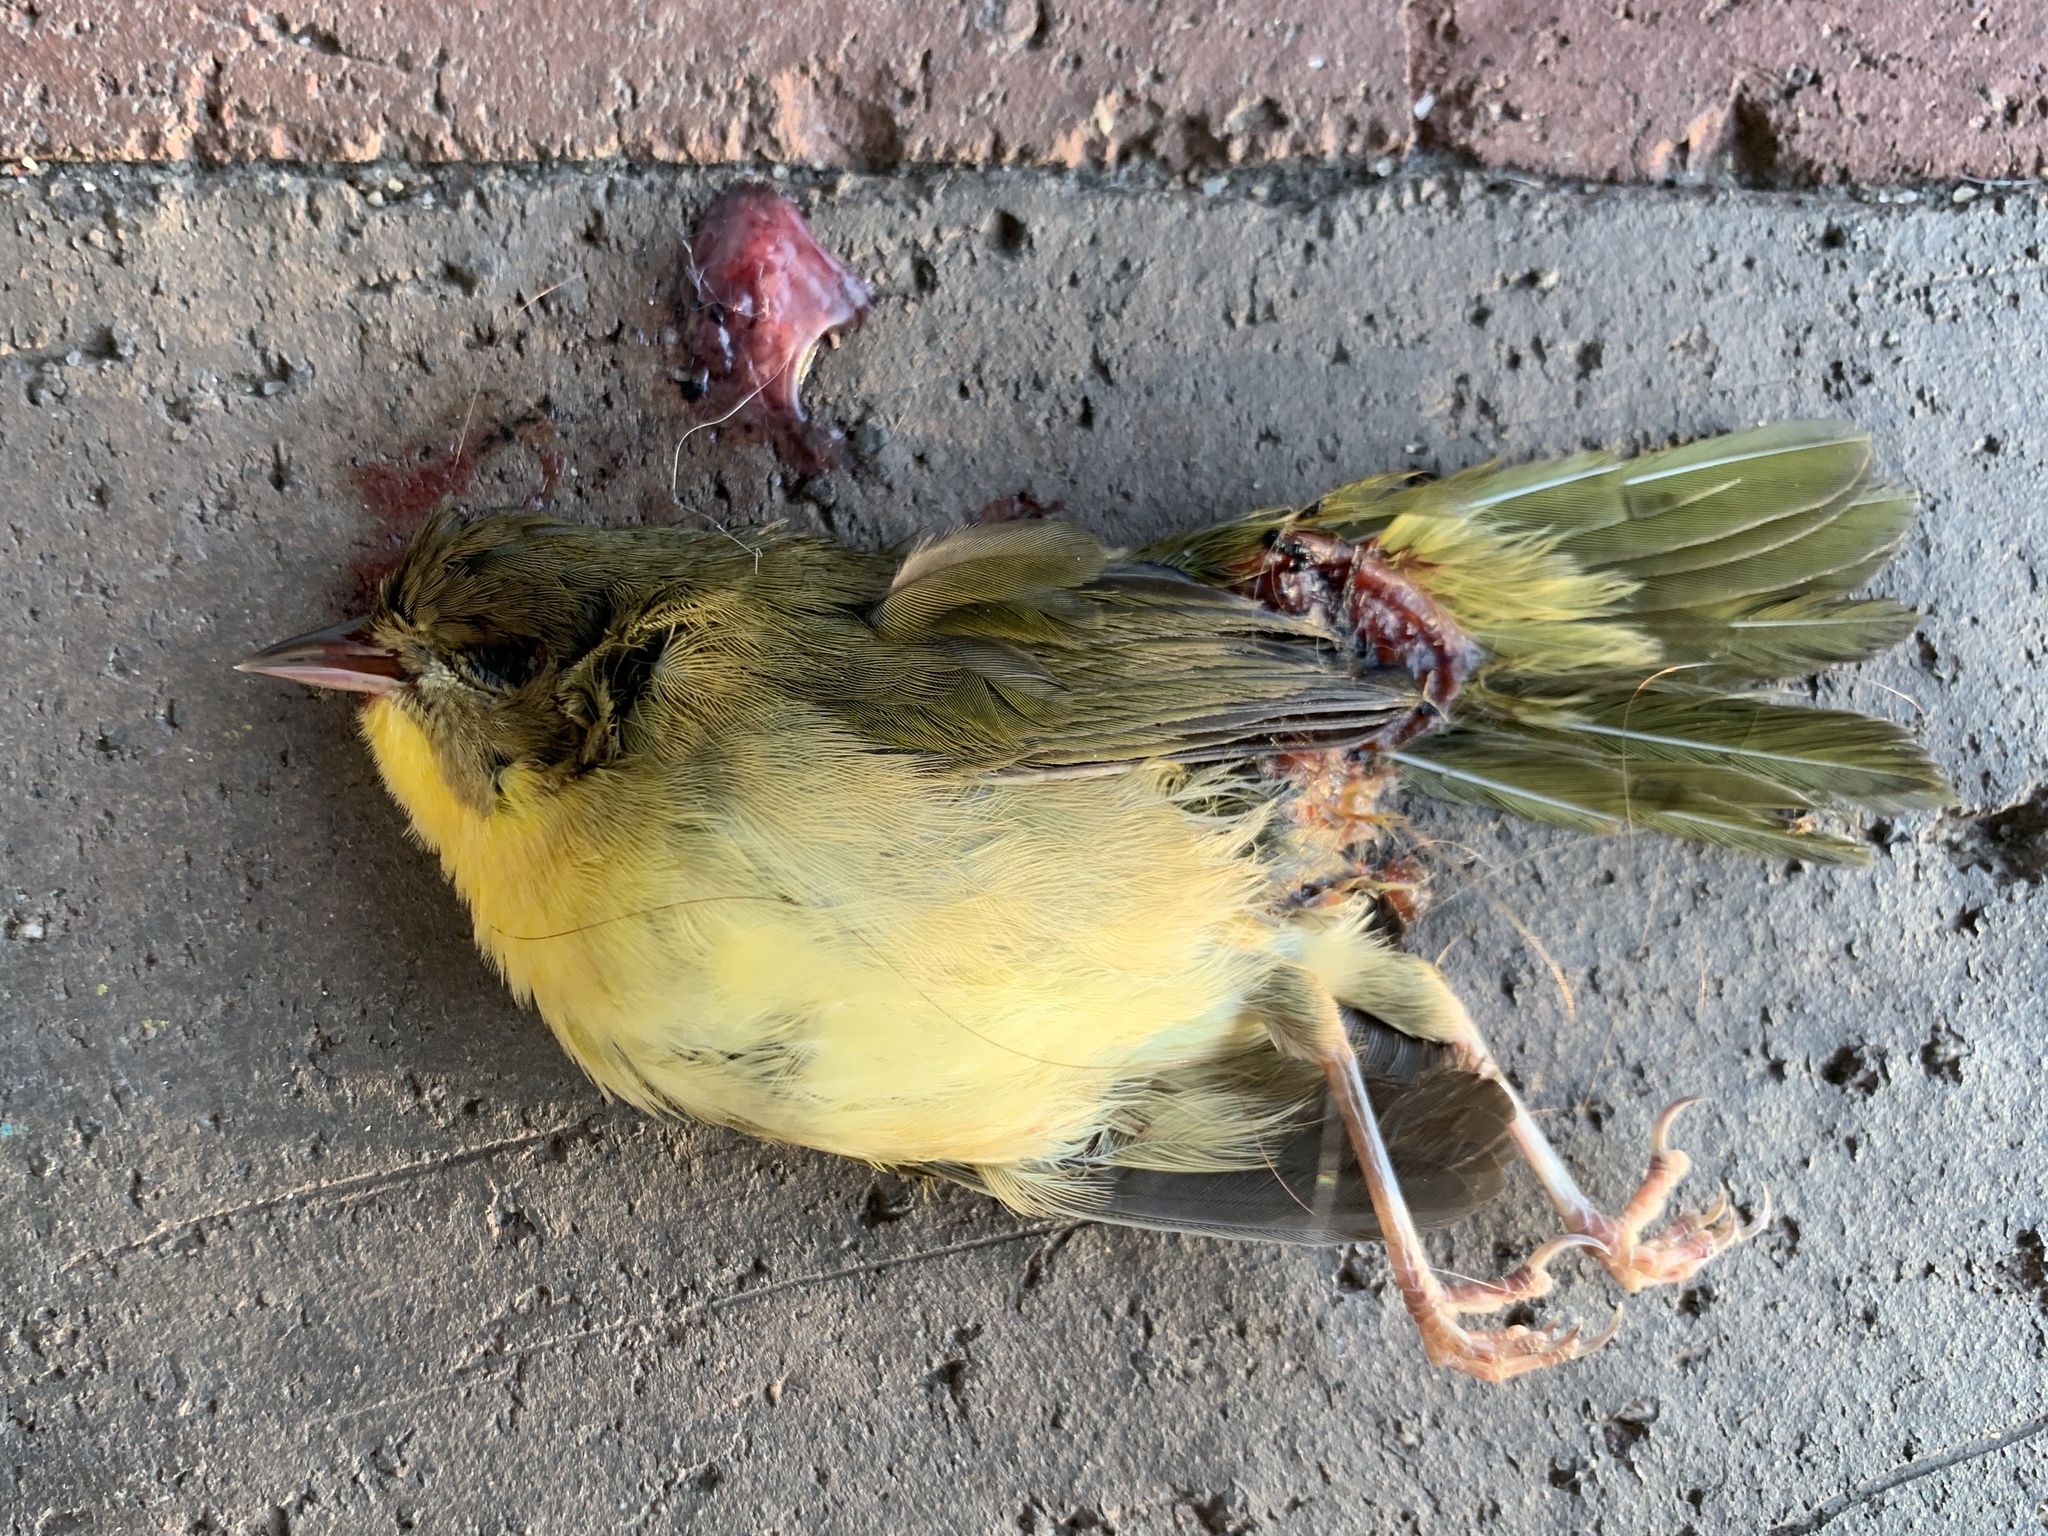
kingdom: Animalia
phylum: Chordata
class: Aves
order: Passeriformes
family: Parulidae
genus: Geothlypis
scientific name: Geothlypis trichas
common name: Common yellowthroat
